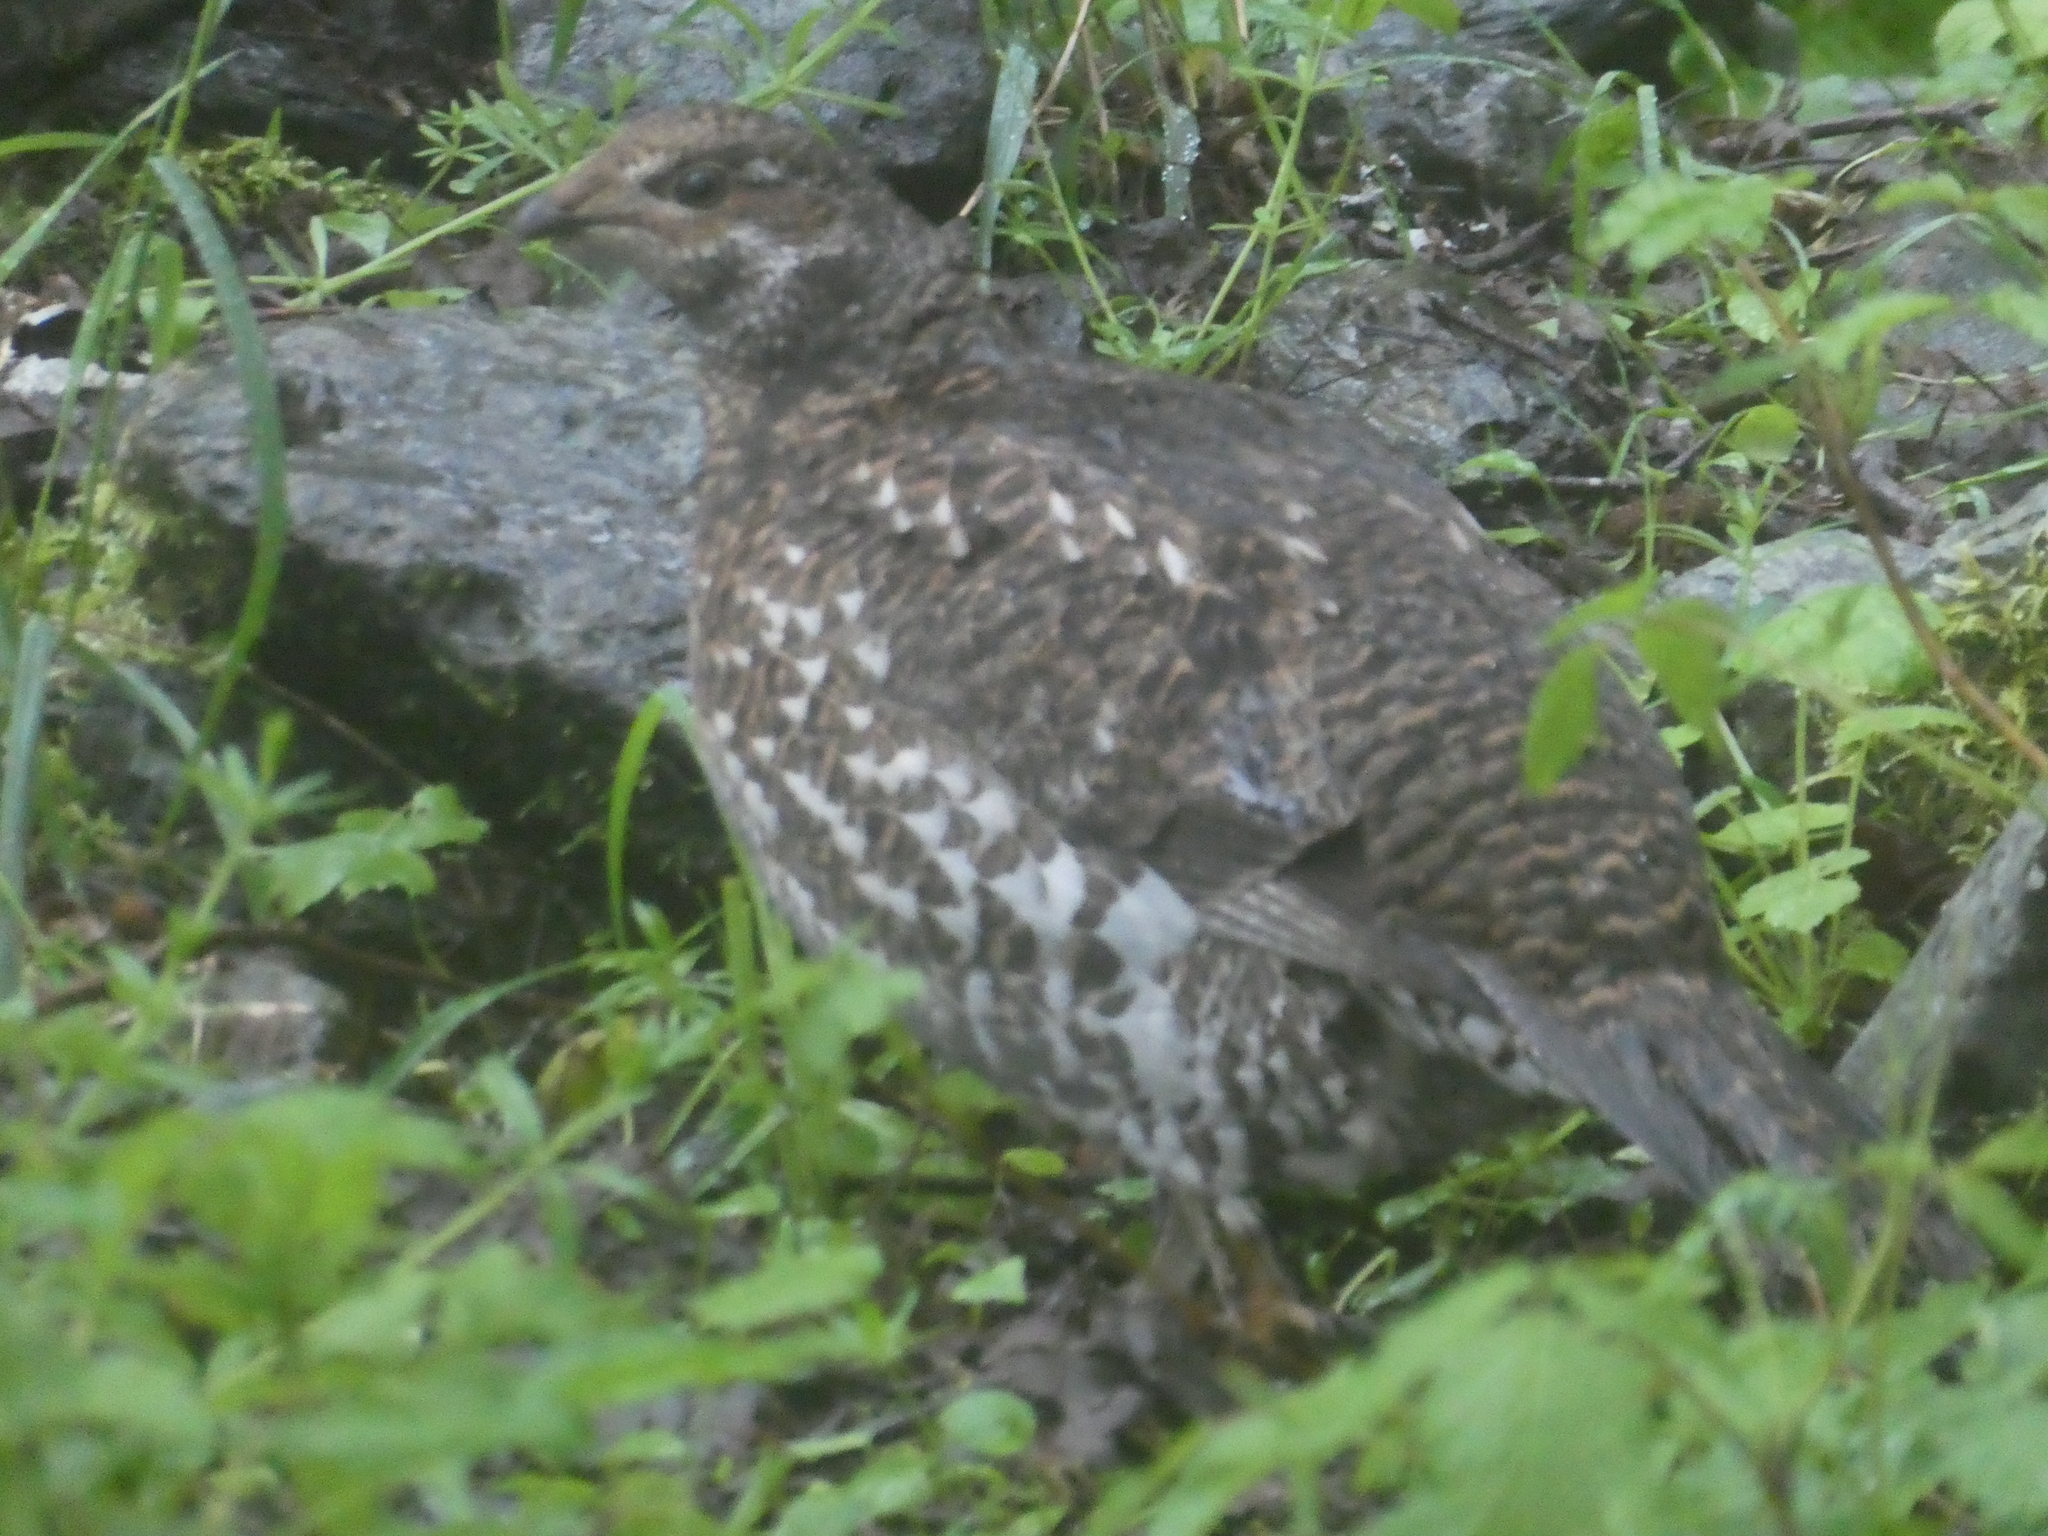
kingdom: Animalia
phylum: Chordata
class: Aves
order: Galliformes
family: Phasianidae
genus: Dendragapus
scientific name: Dendragapus fuliginosus
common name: Sooty grouse
